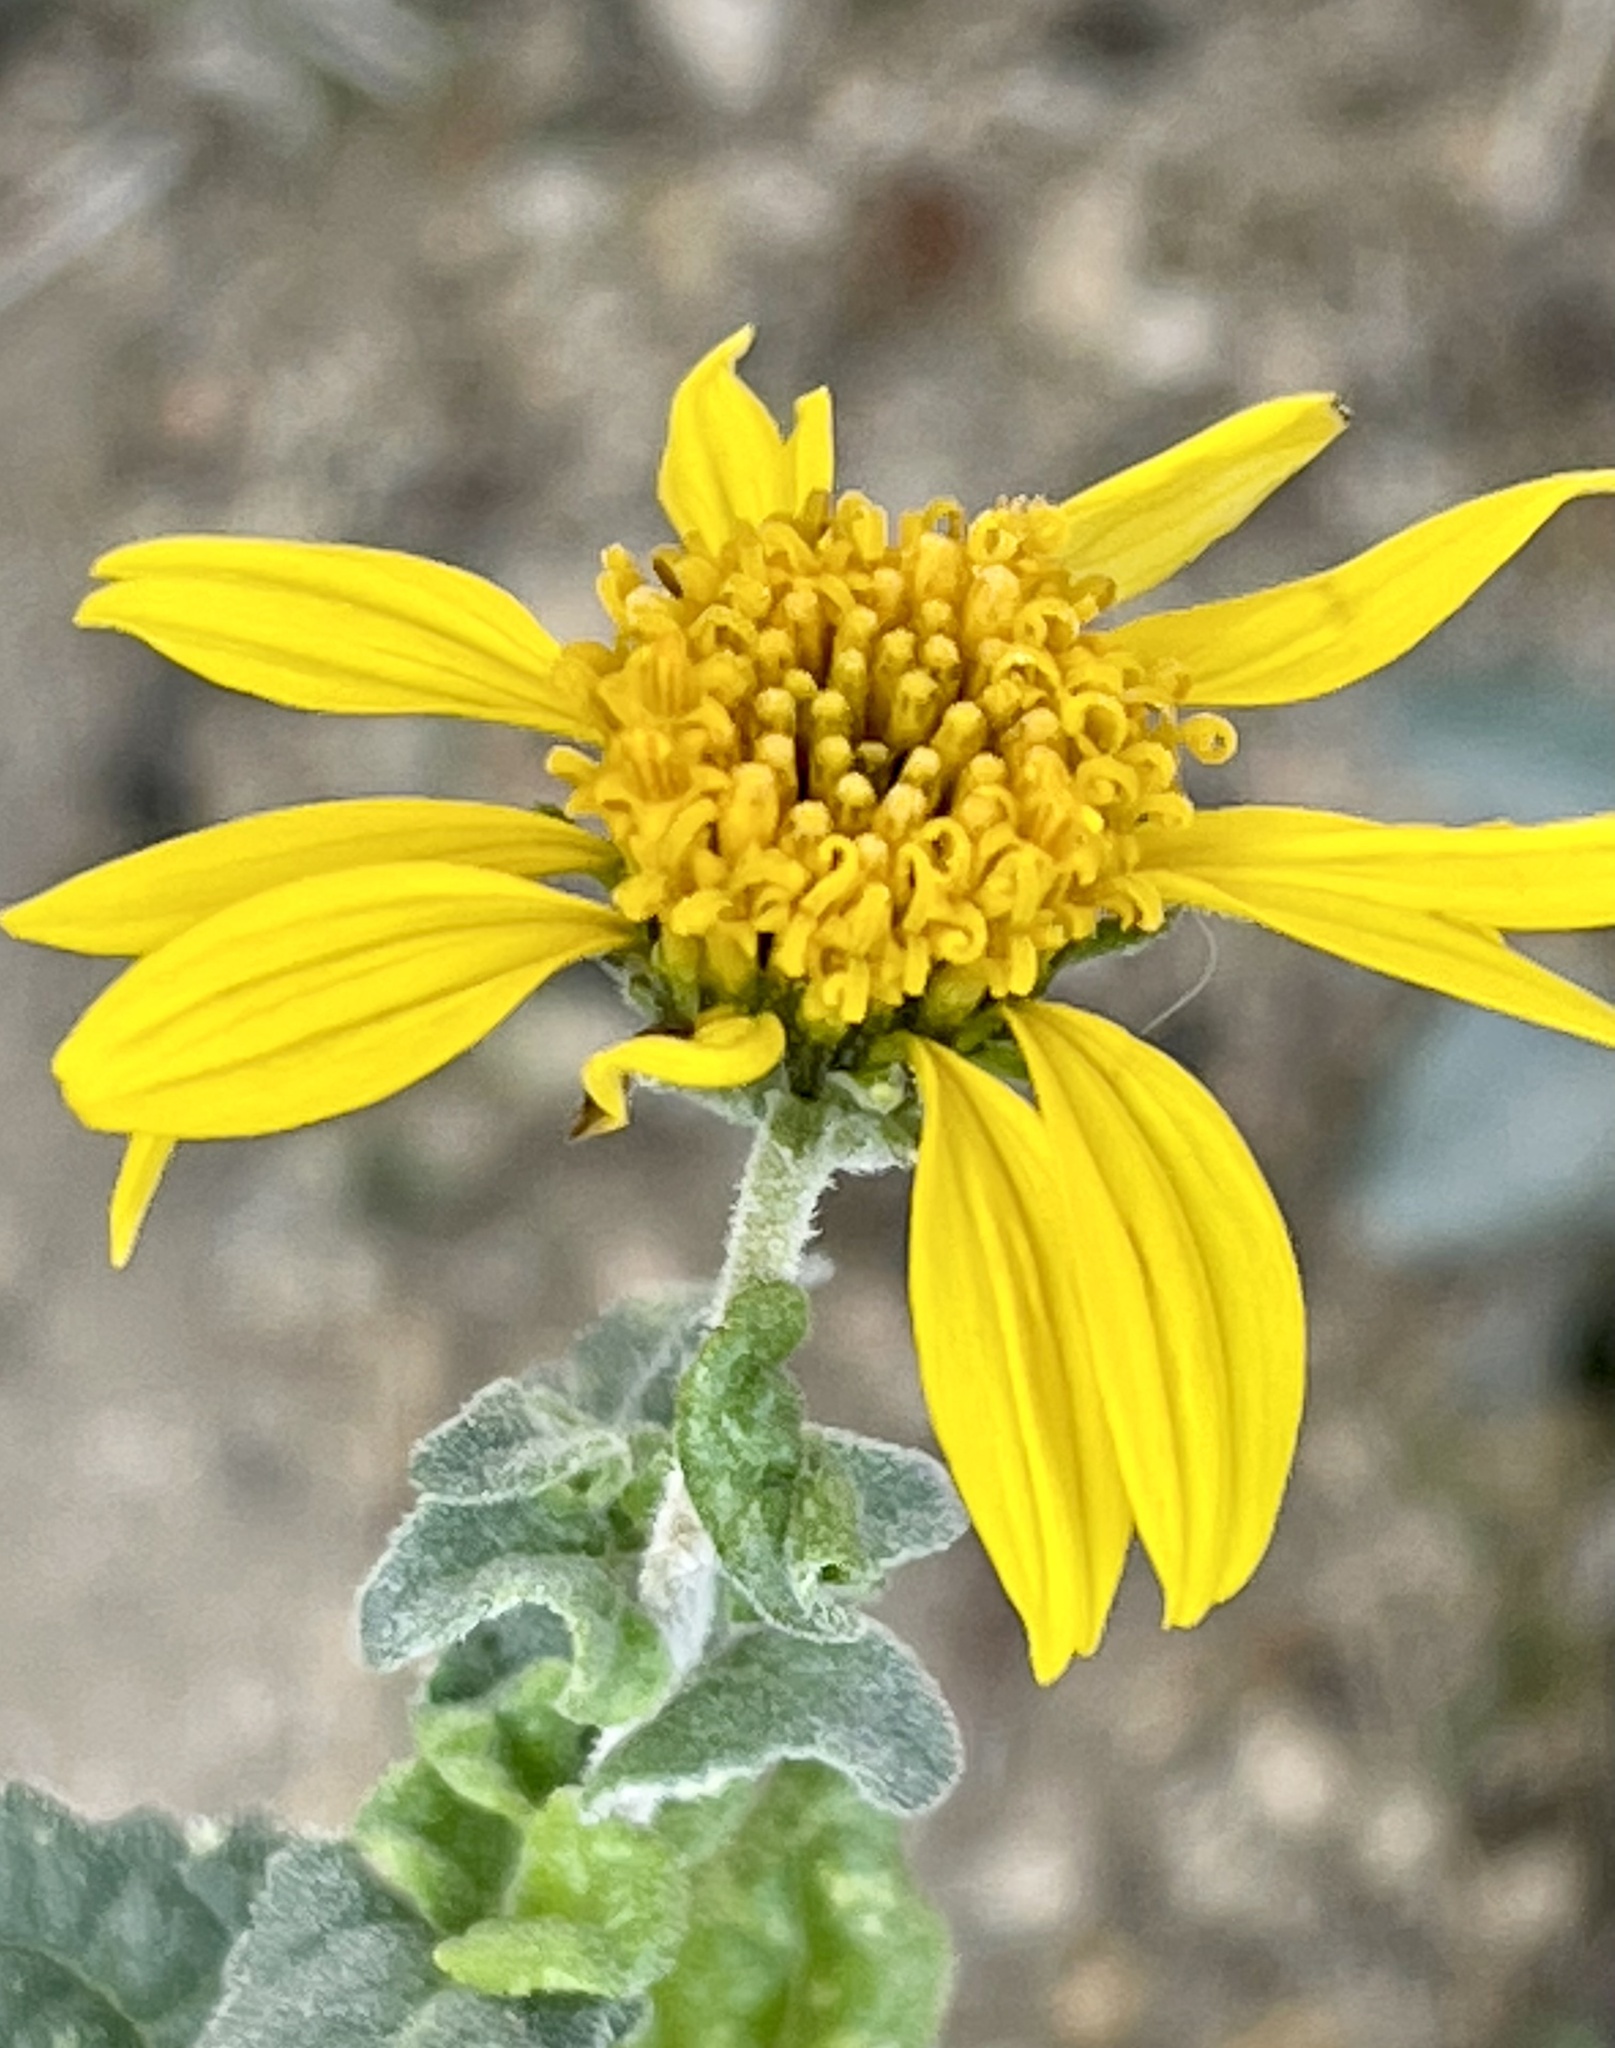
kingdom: Plantae
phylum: Tracheophyta
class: Magnoliopsida
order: Asterales
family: Asteraceae
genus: Bahiopsis
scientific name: Bahiopsis parishii
